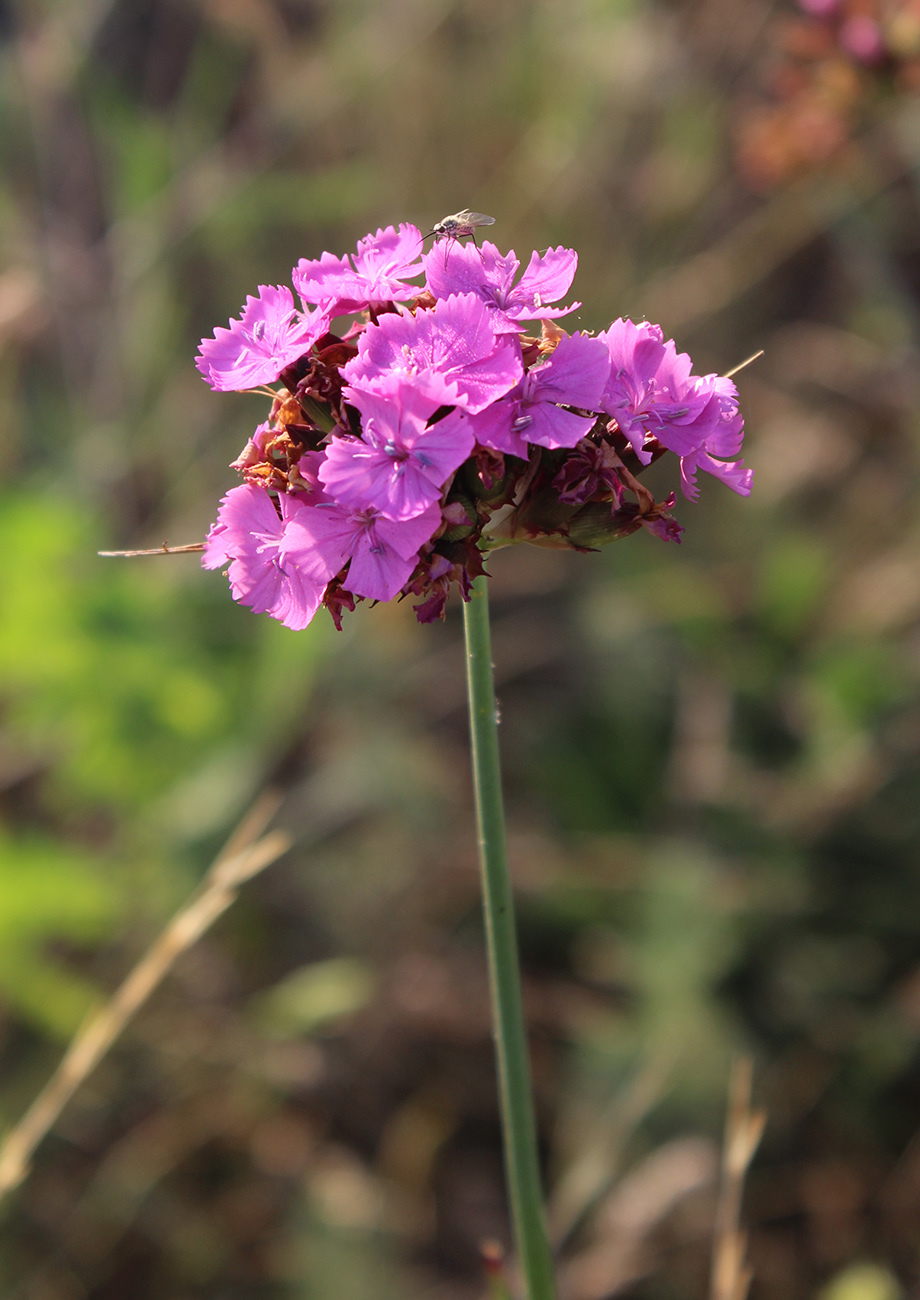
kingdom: Plantae
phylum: Tracheophyta
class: Magnoliopsida
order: Caryophyllales
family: Caryophyllaceae
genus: Dianthus
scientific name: Dianthus capitatus
